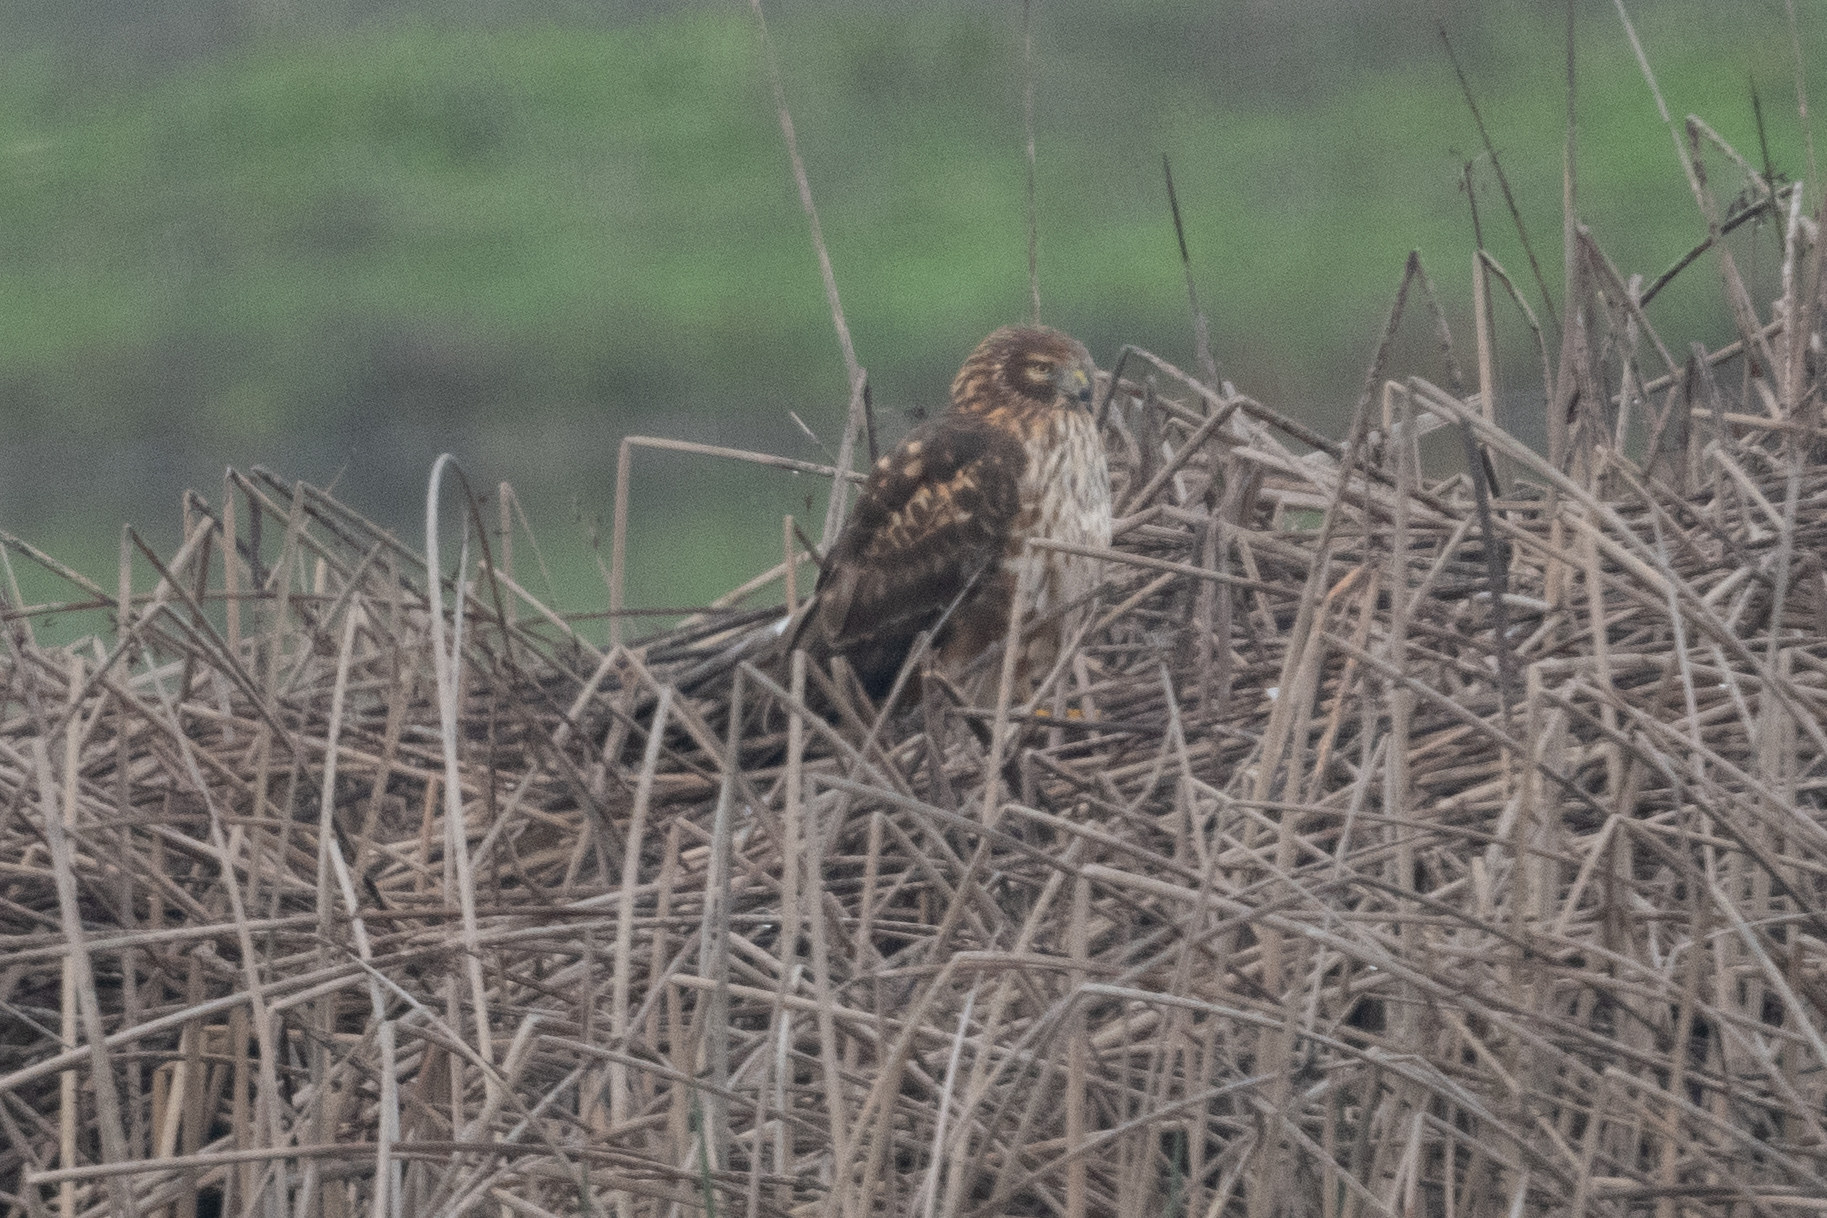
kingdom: Animalia
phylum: Chordata
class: Aves
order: Accipitriformes
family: Accipitridae
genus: Circus
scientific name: Circus cyaneus
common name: Hen harrier
